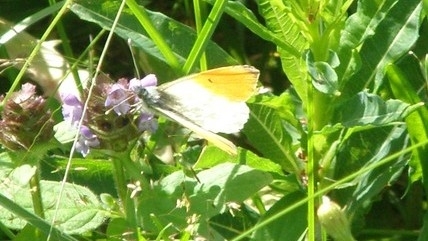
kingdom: Animalia
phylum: Arthropoda
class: Insecta
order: Lepidoptera
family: Pieridae
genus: Anthocharis
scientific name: Anthocharis cardamines
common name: Orange-tip
